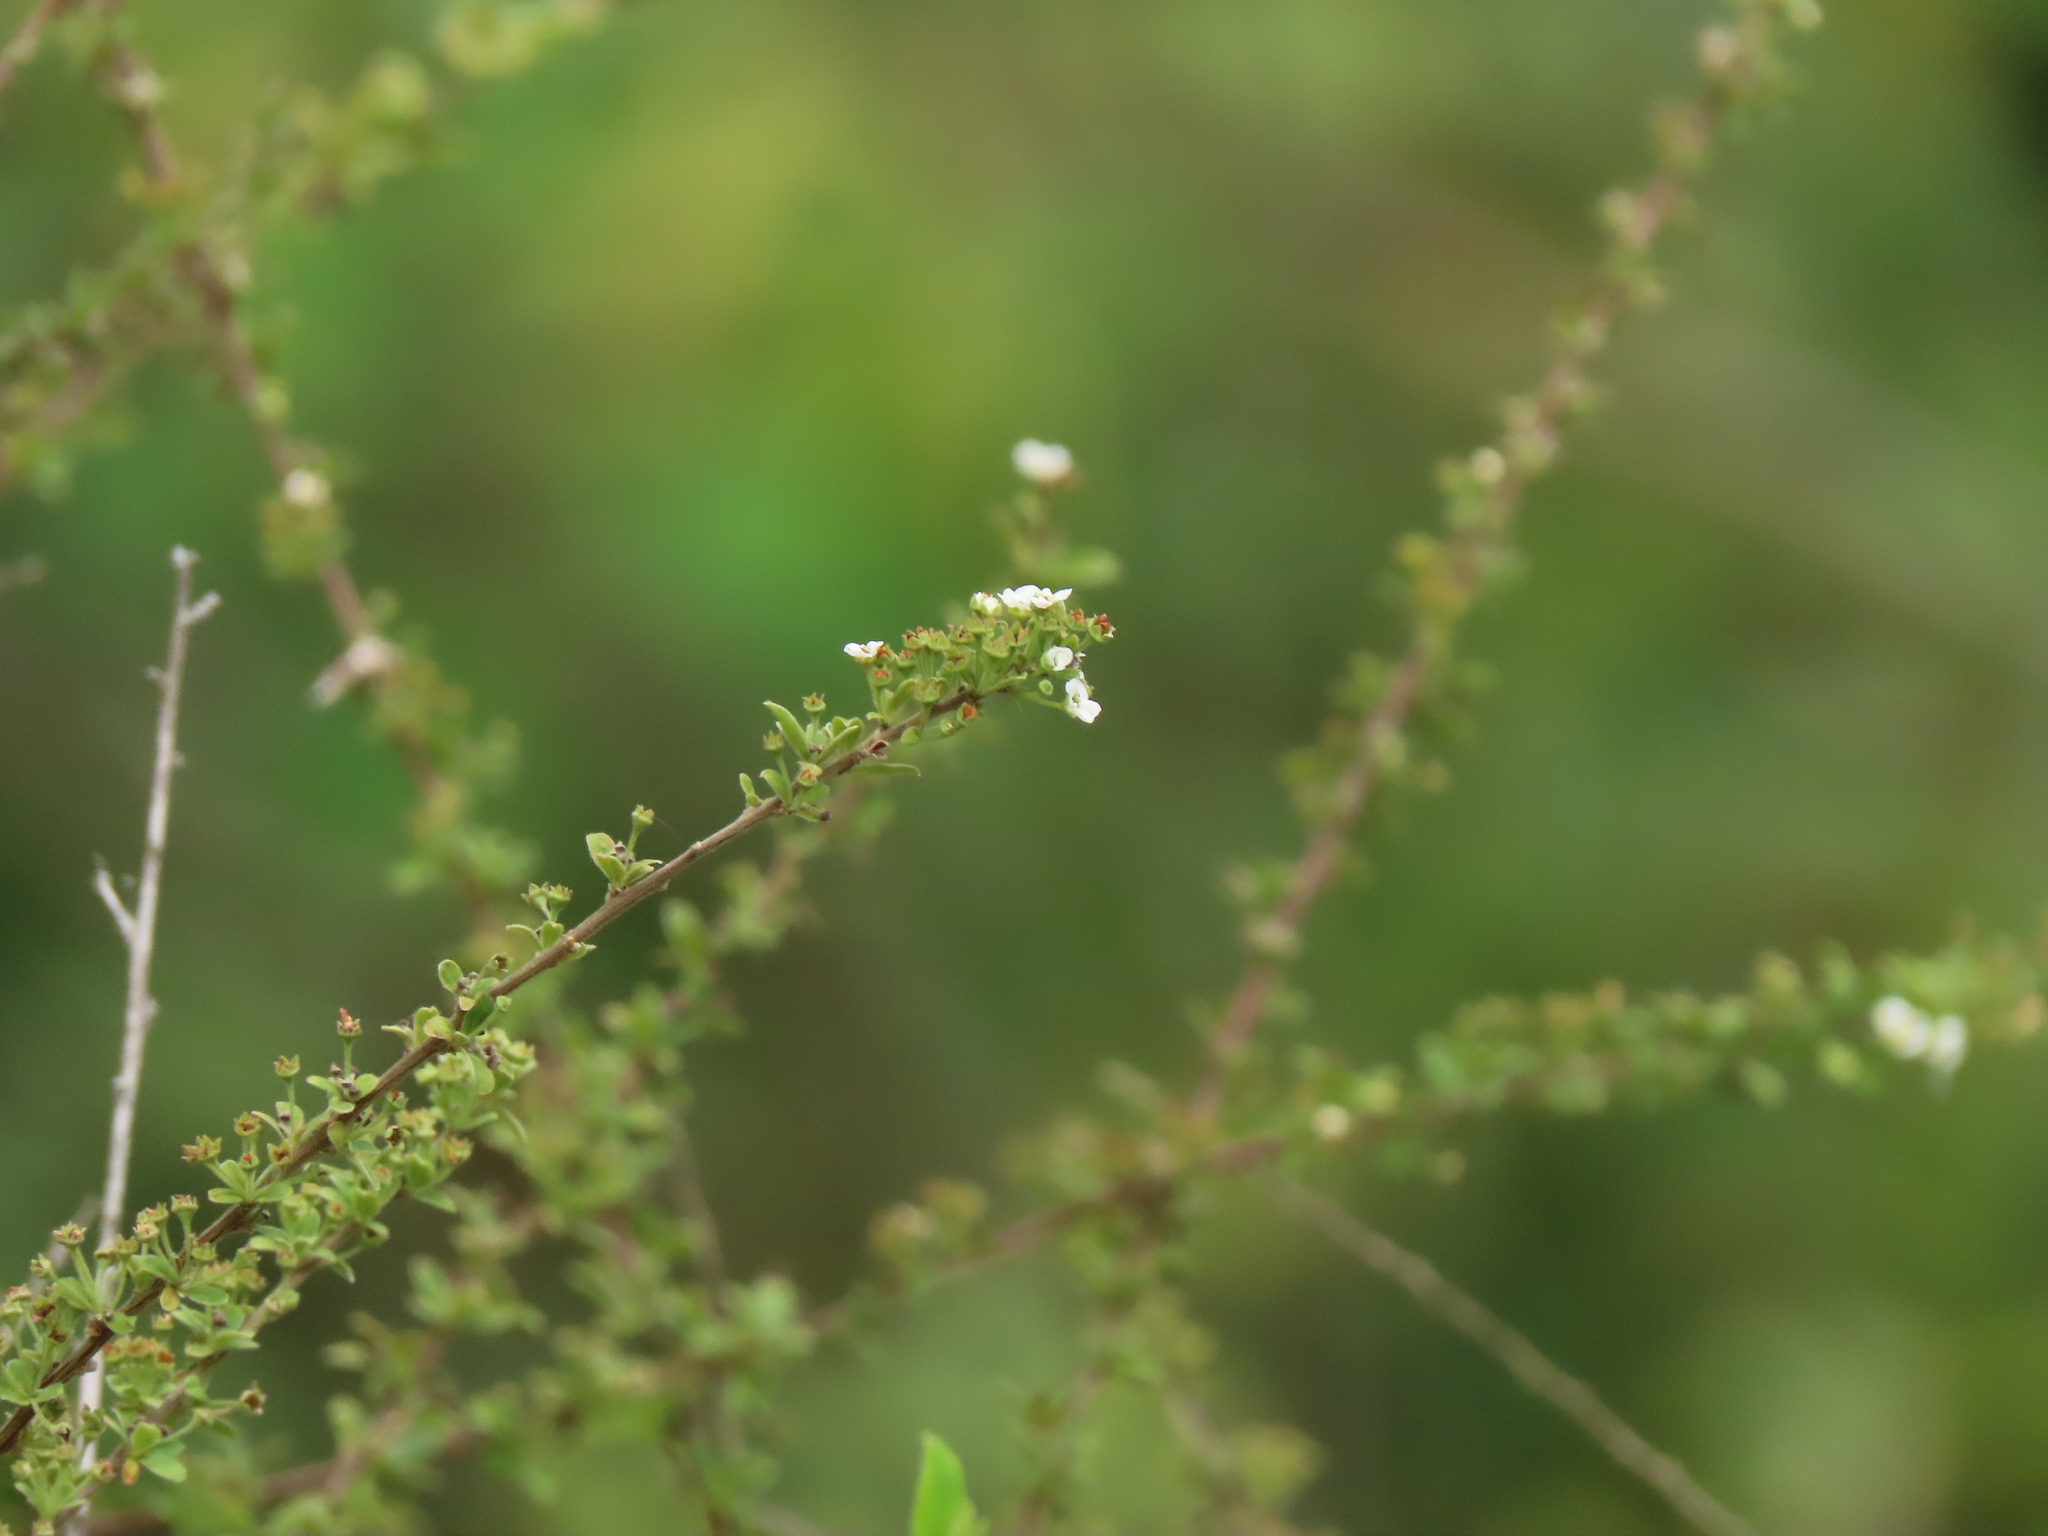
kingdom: Plantae
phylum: Tracheophyta
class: Magnoliopsida
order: Rosales
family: Rosaceae
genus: Spiraea
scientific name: Spiraea prunifolia
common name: Bridal-wreath spiraea
